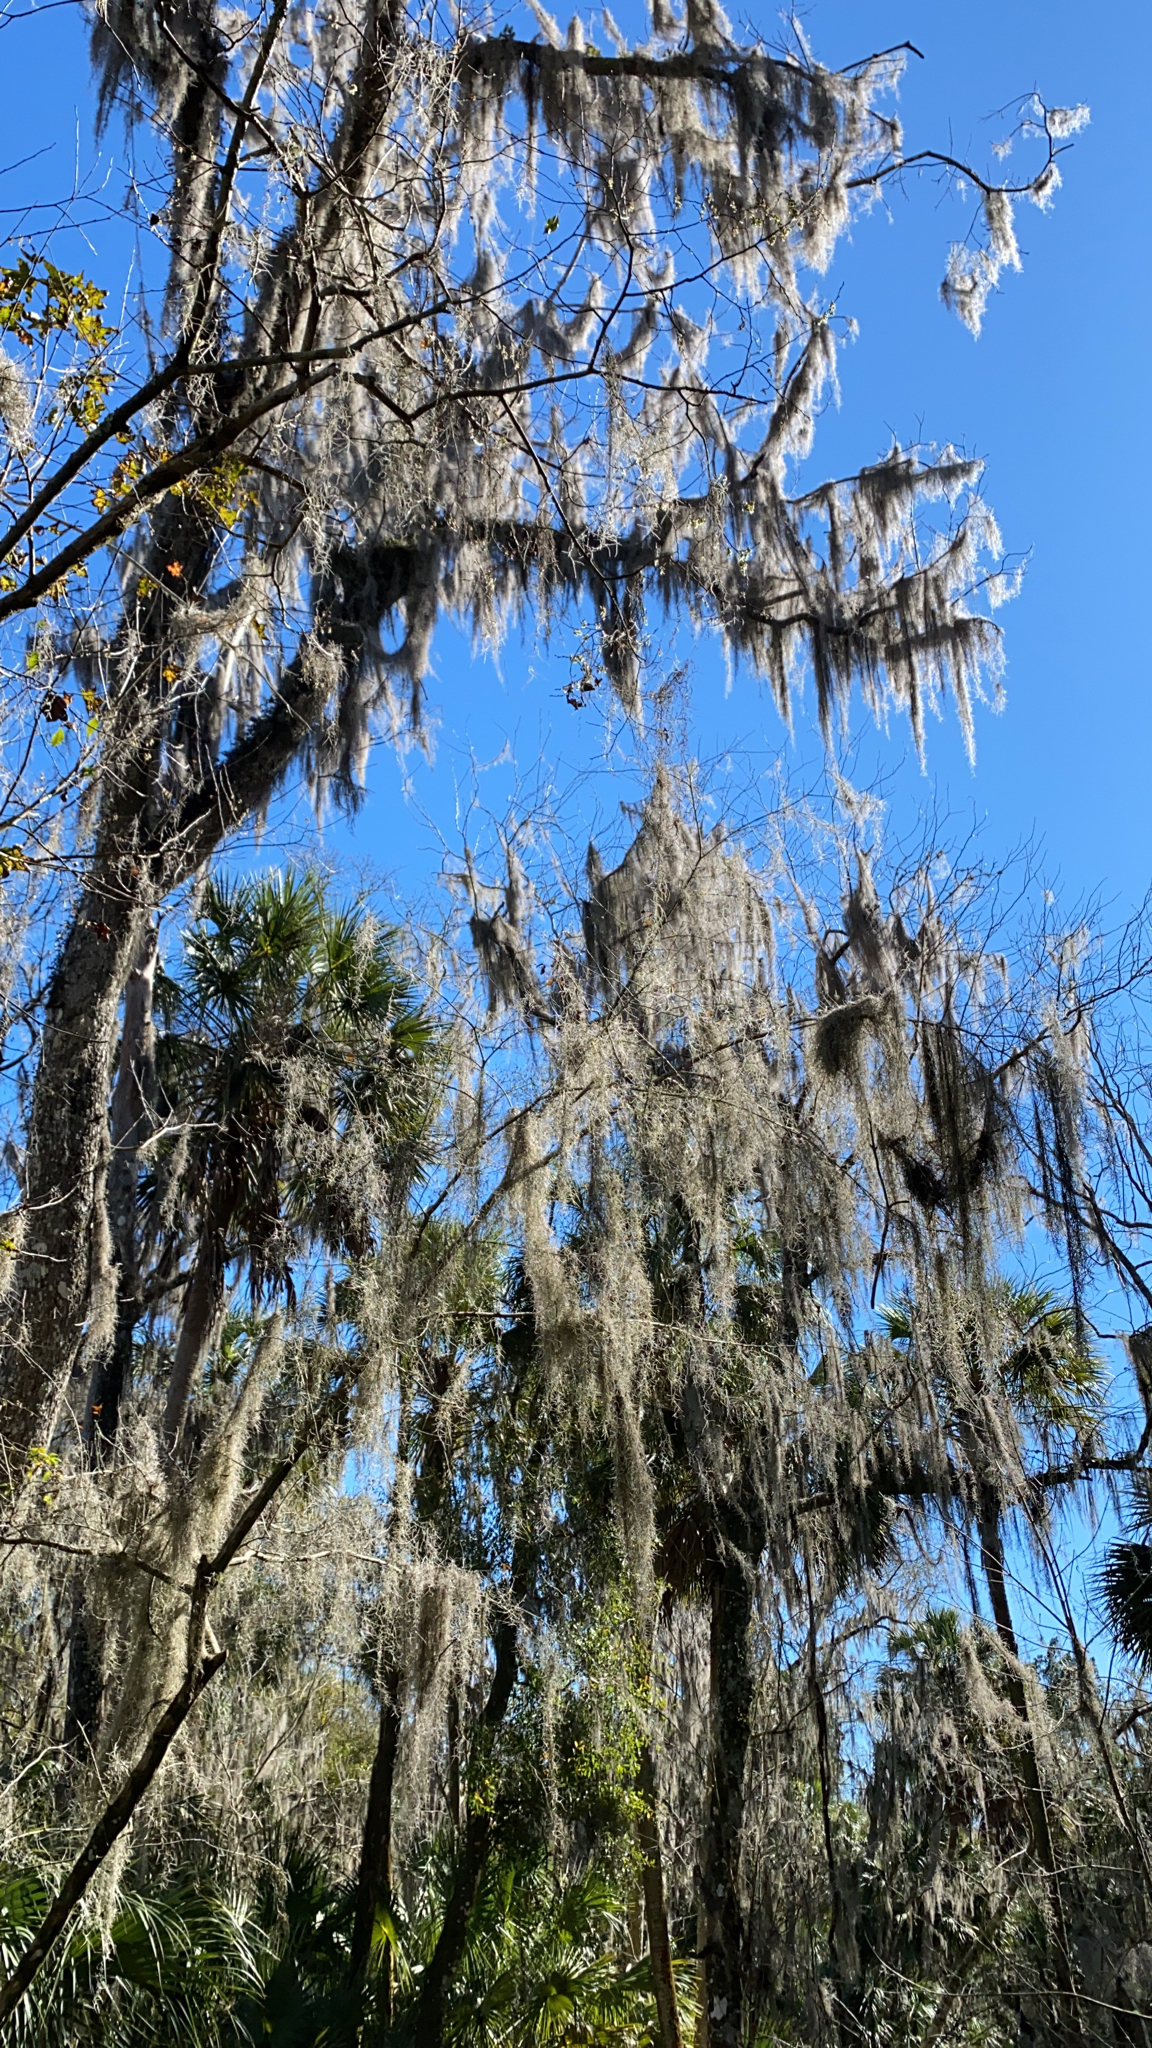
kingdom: Plantae
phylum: Tracheophyta
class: Liliopsida
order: Poales
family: Bromeliaceae
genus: Tillandsia
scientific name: Tillandsia usneoides
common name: Spanish moss
